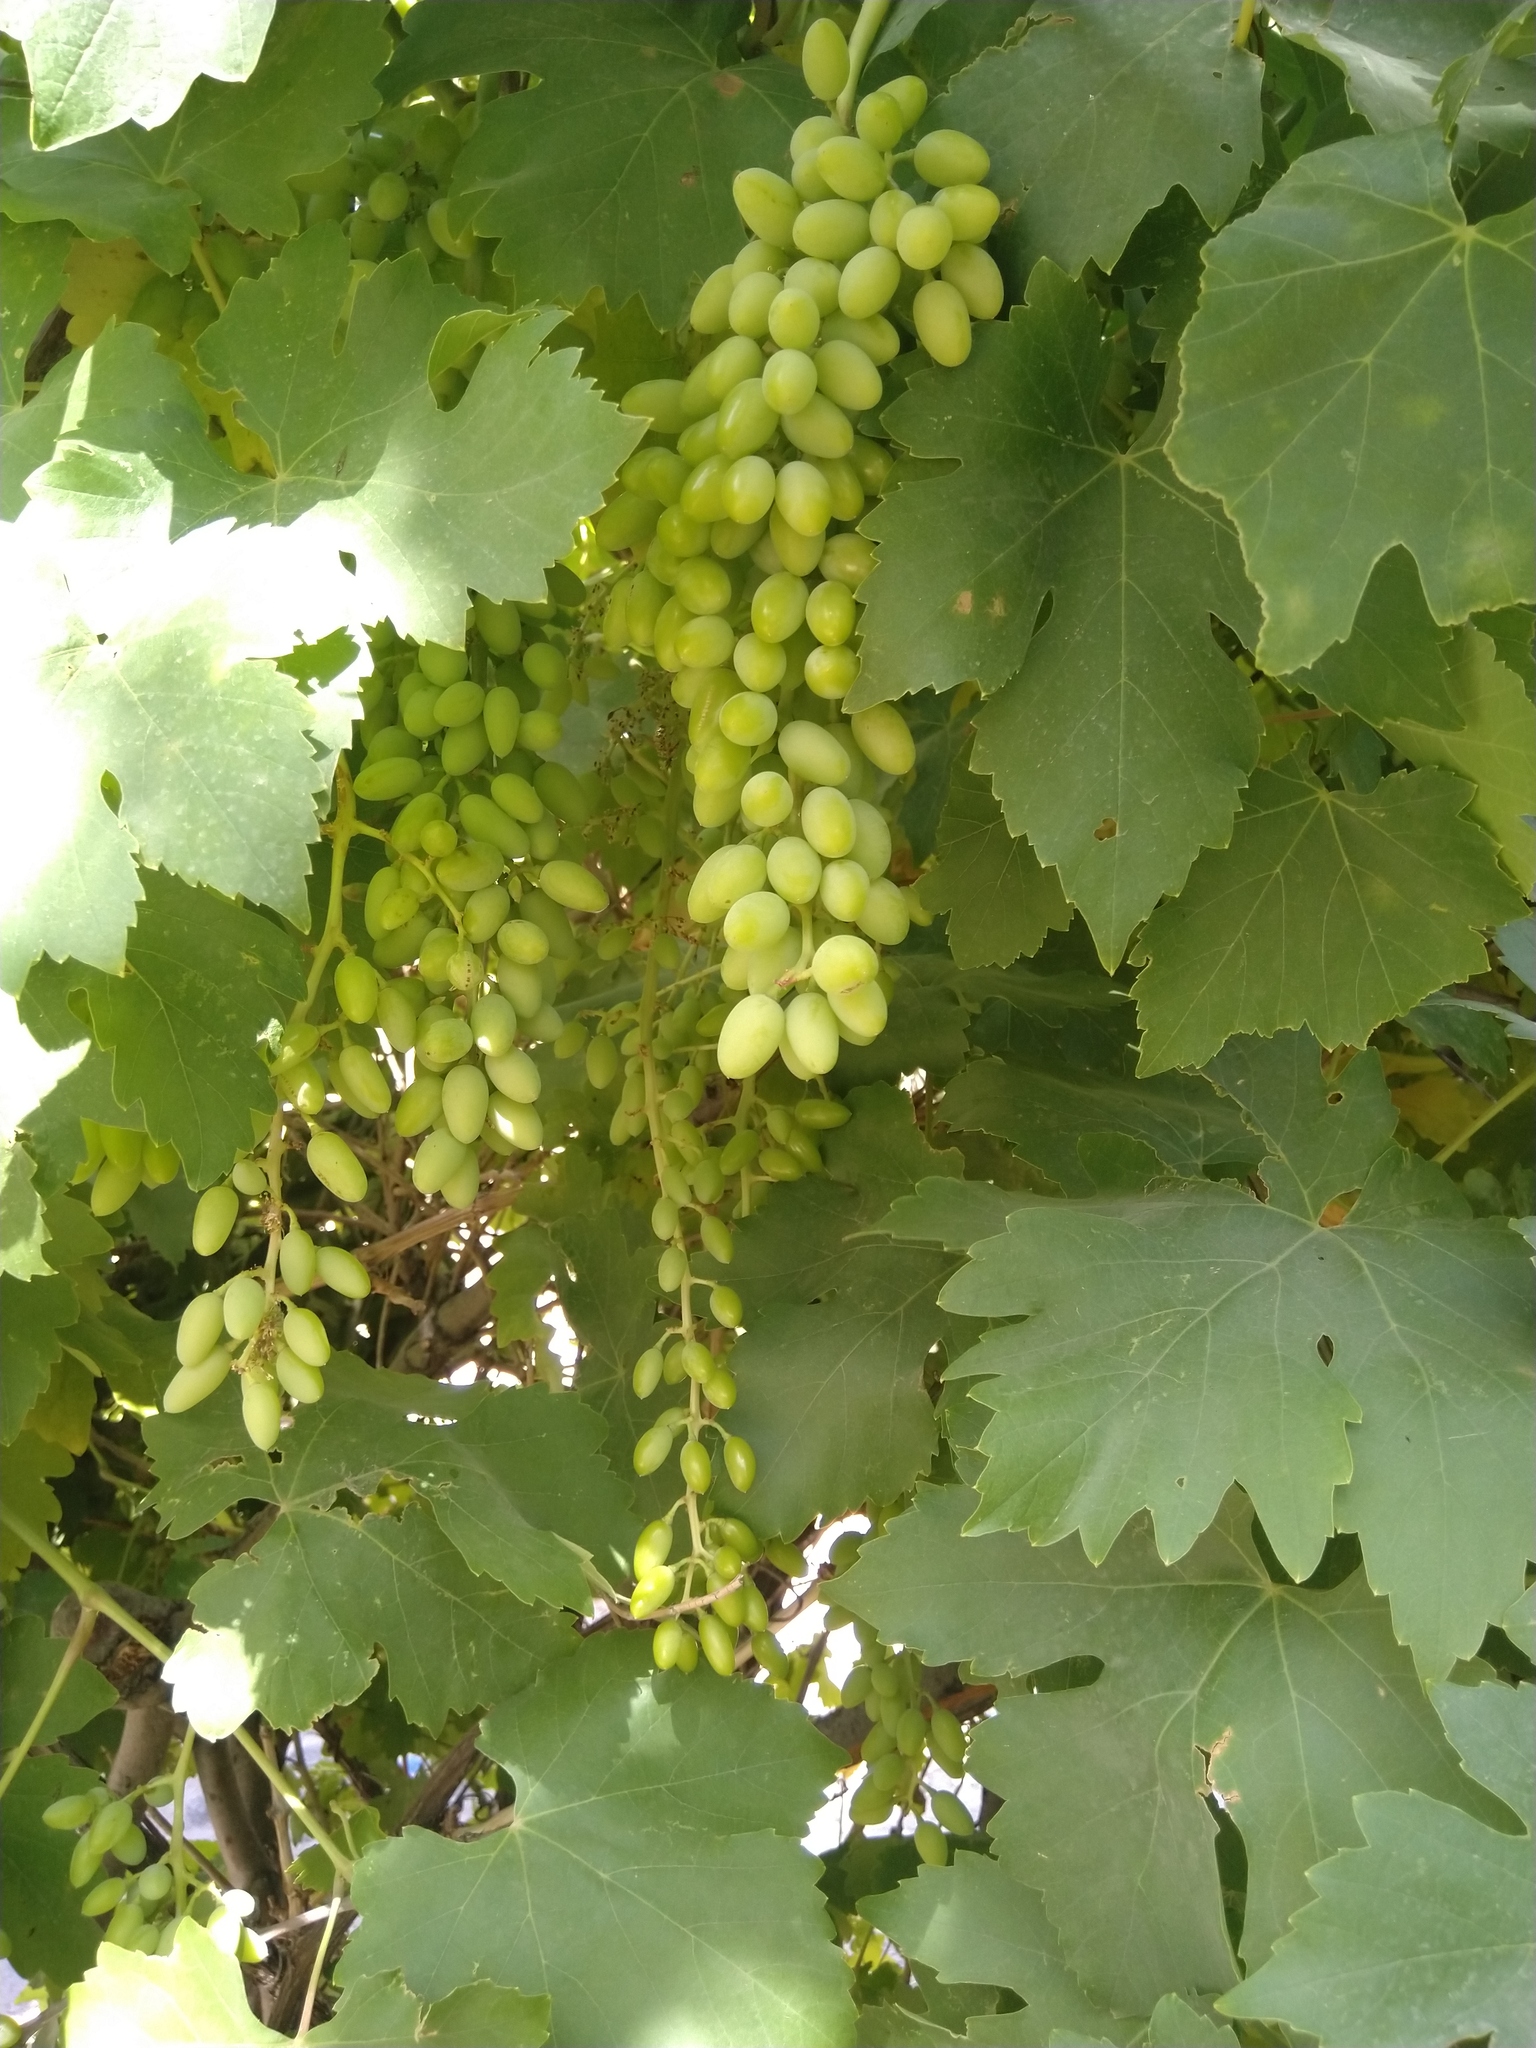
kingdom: Plantae
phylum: Tracheophyta
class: Magnoliopsida
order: Vitales
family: Vitaceae
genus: Vitis
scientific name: Vitis vinifera
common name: Grape-vine
